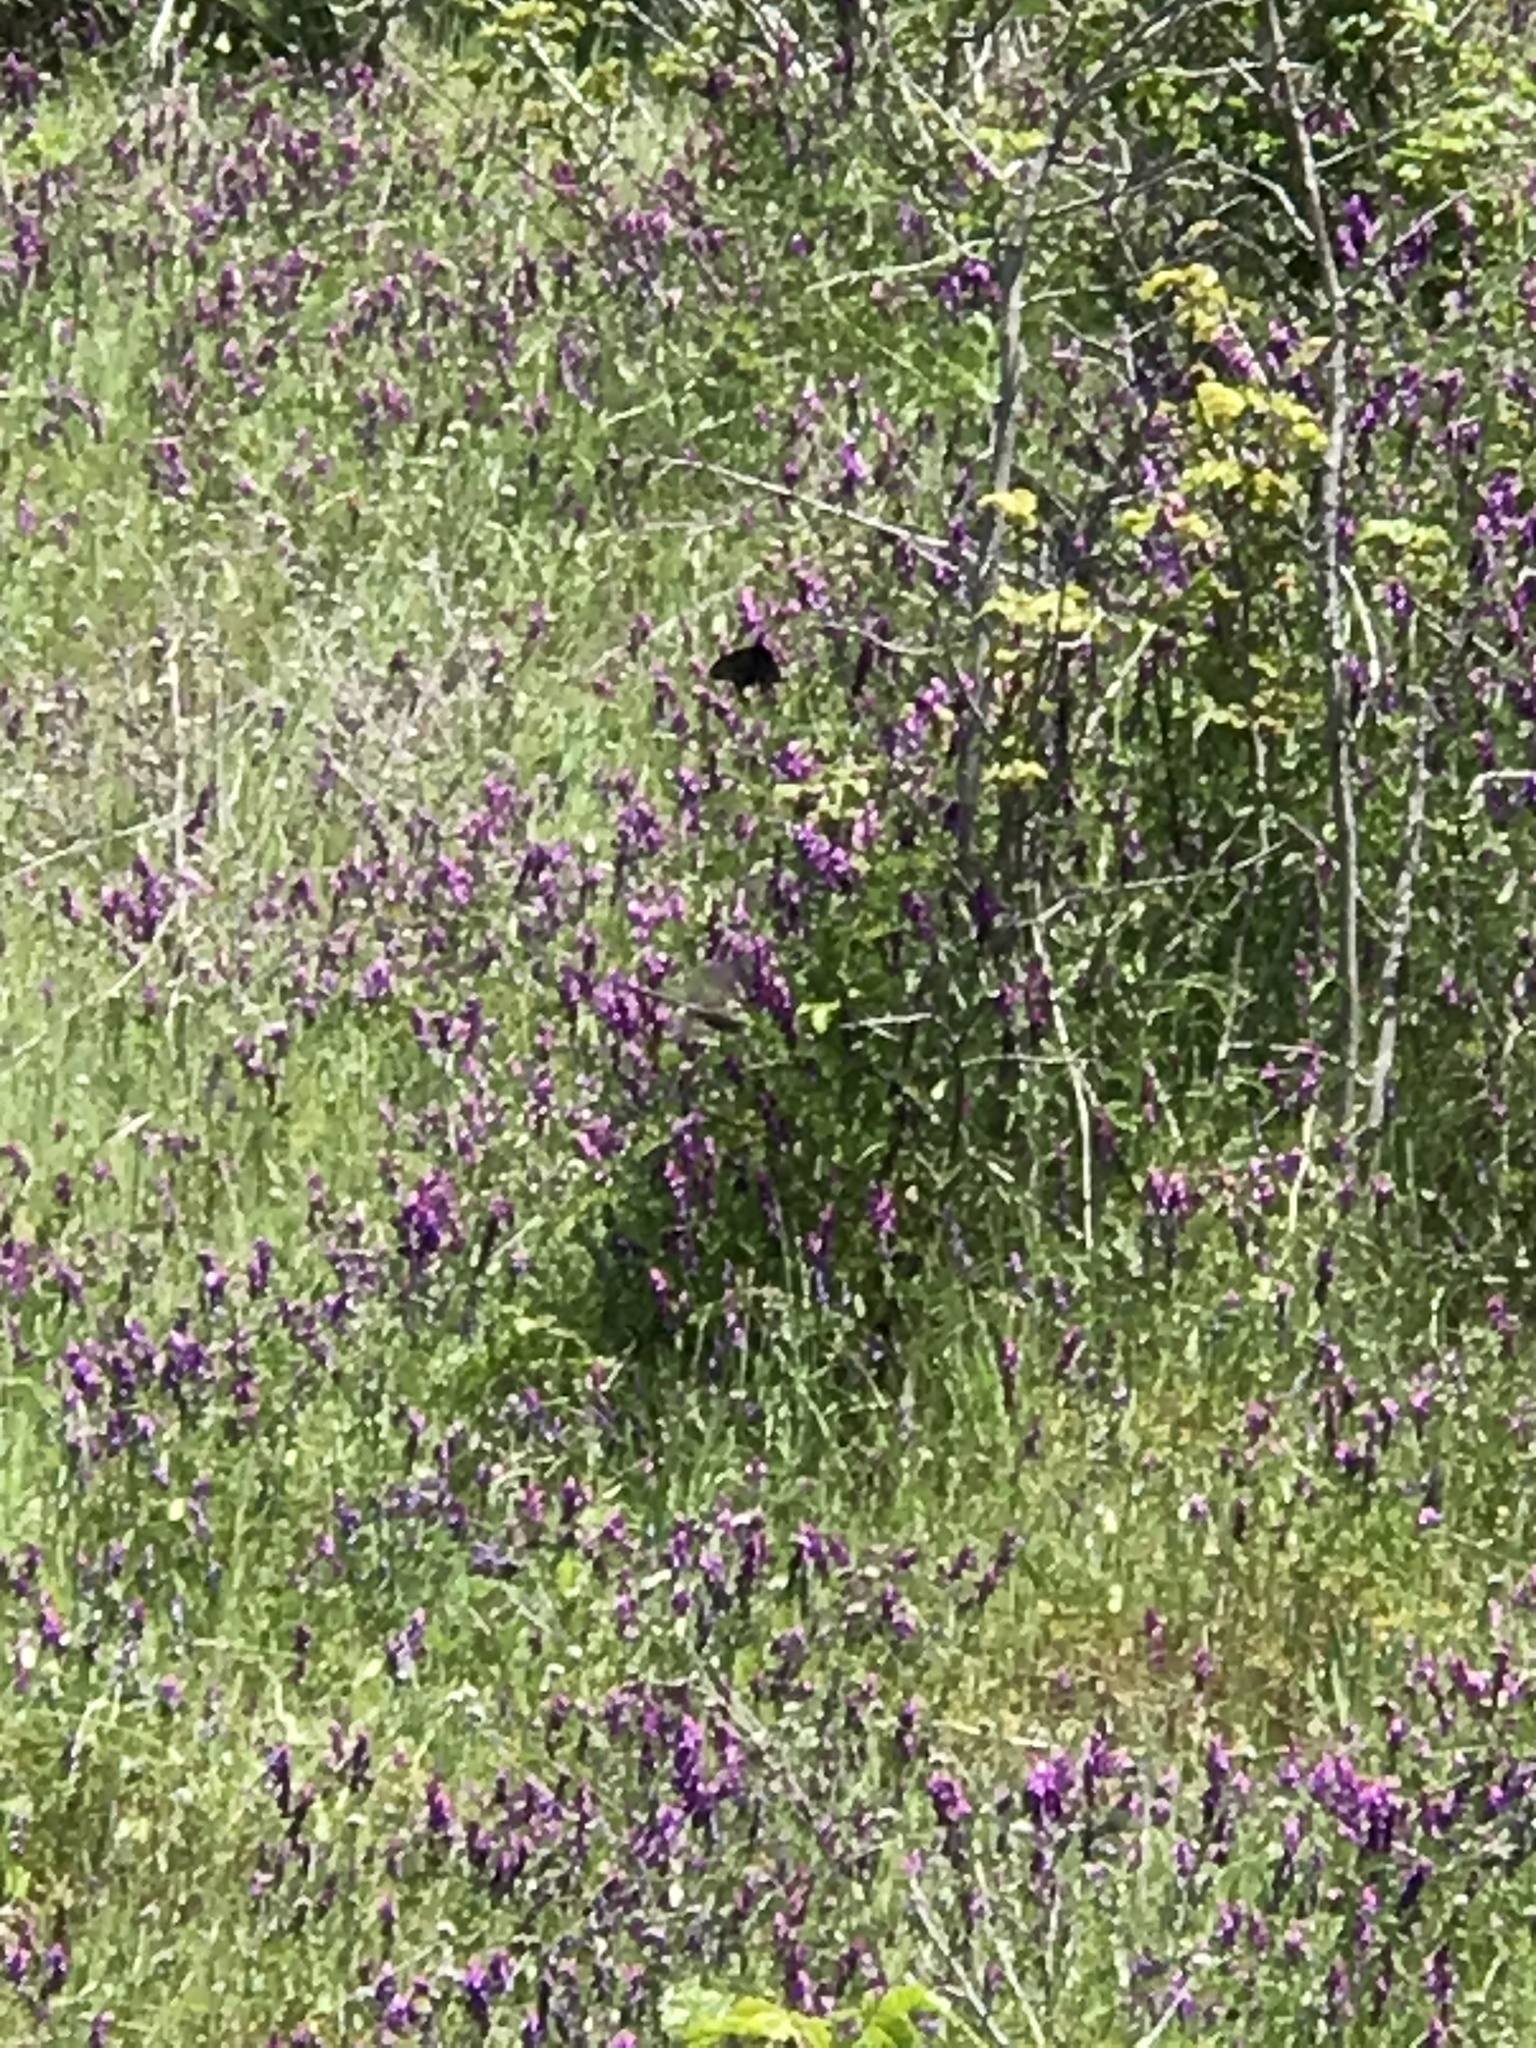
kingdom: Animalia
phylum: Arthropoda
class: Insecta
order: Lepidoptera
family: Papilionidae
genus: Battus
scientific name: Battus philenor
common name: Pipevine swallowtail
